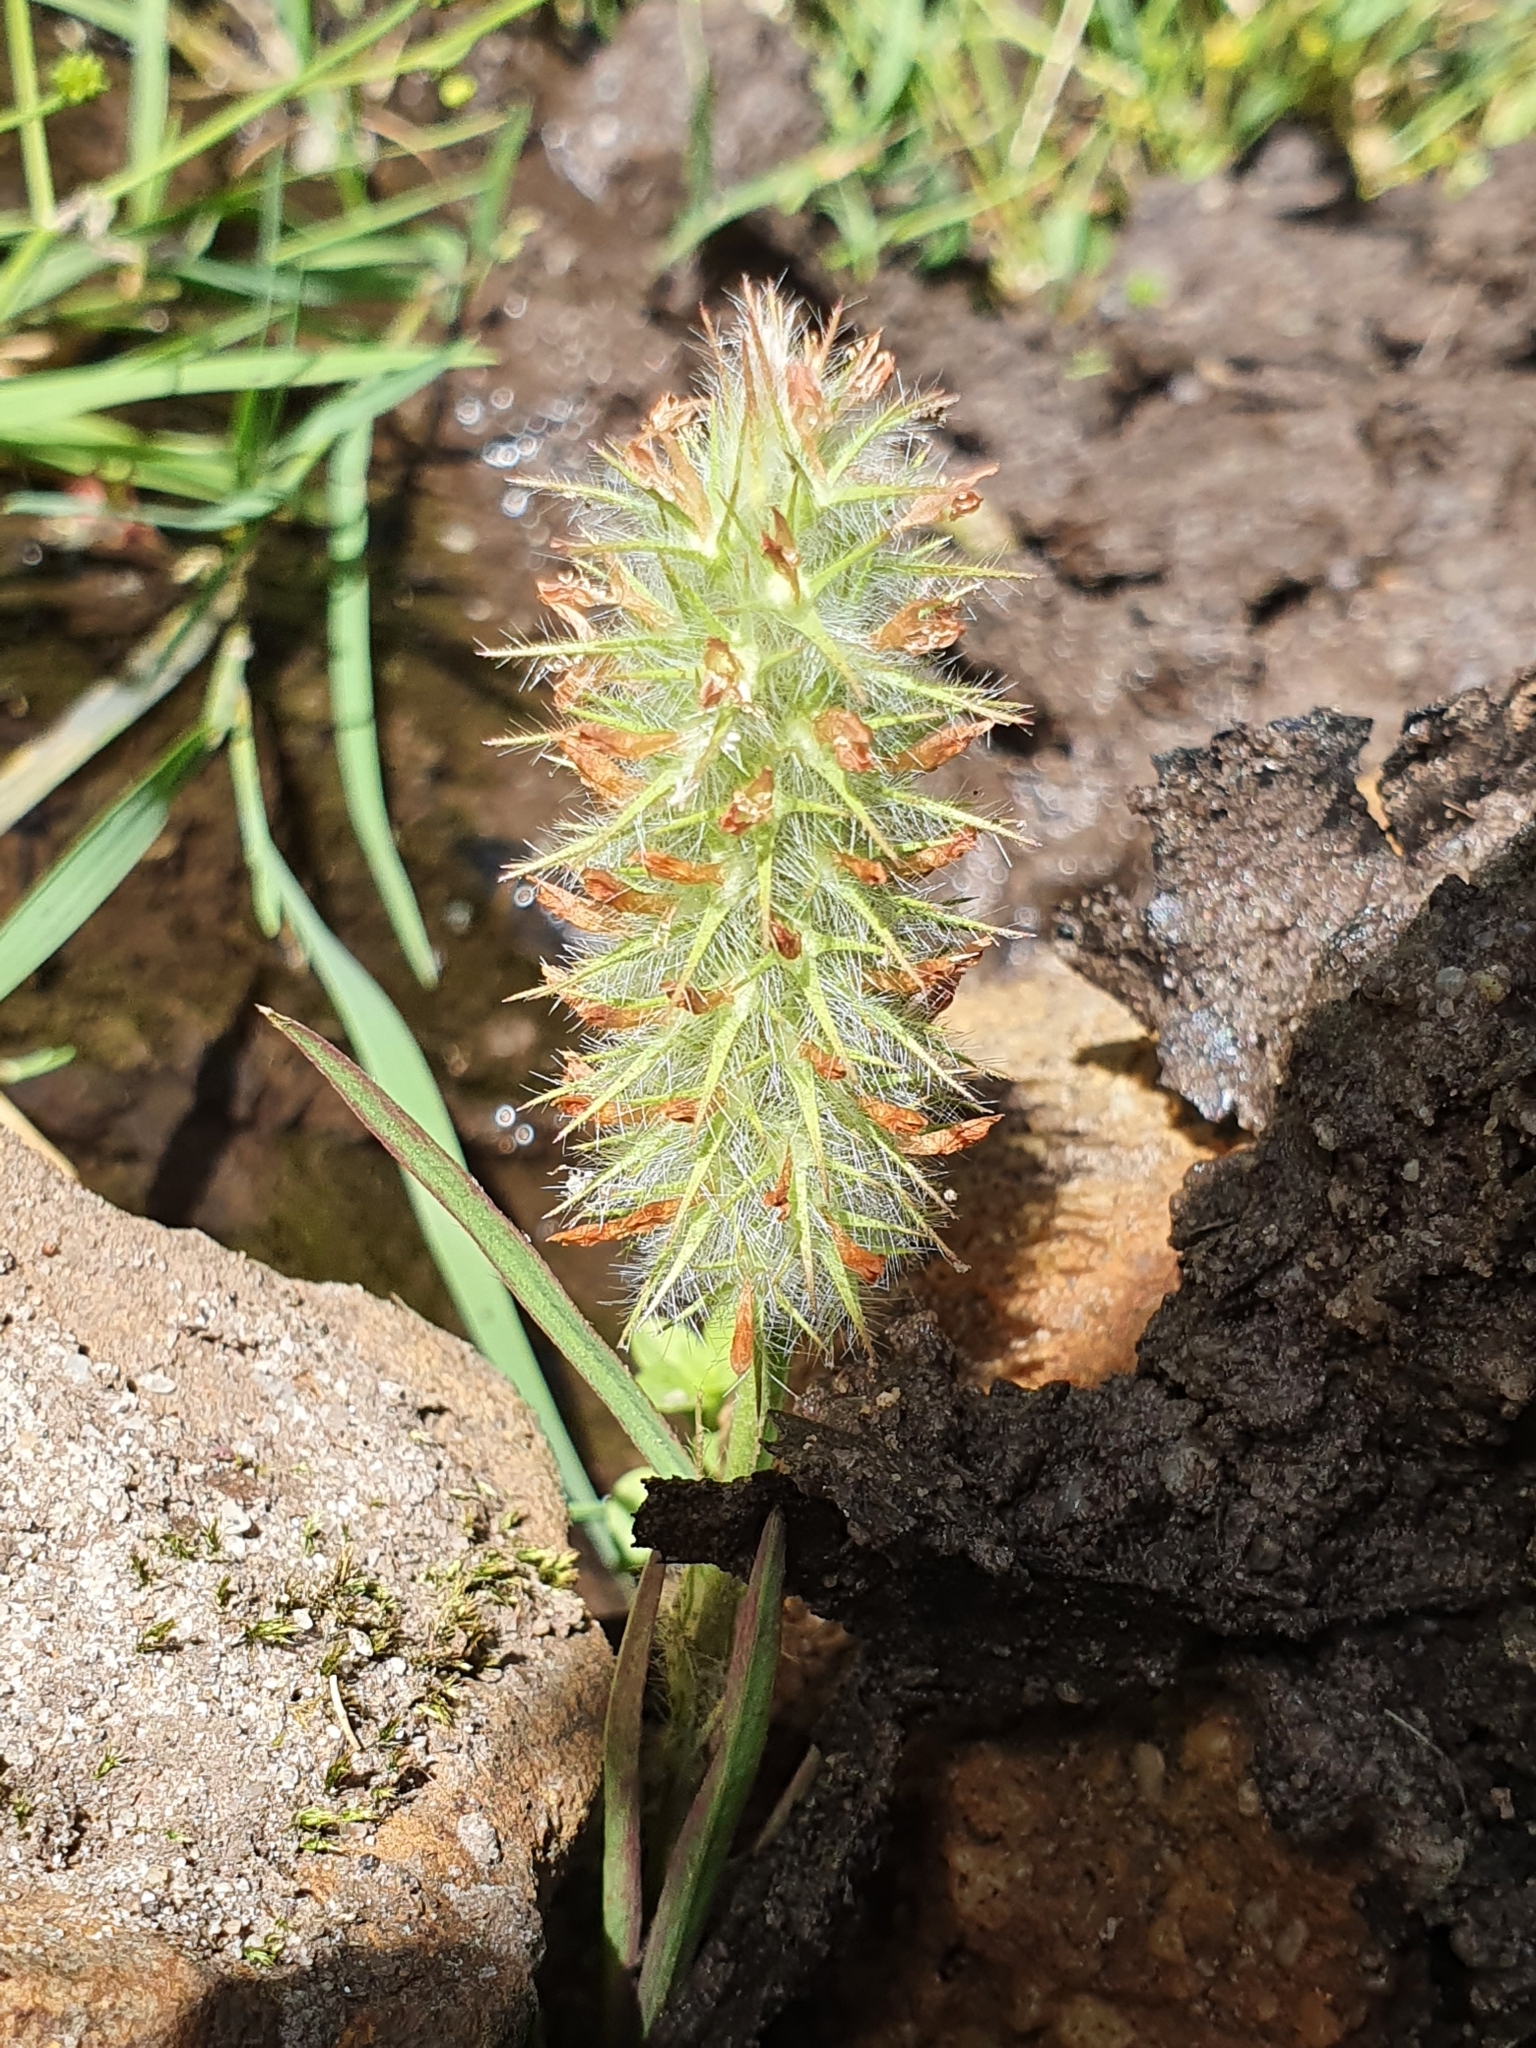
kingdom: Plantae
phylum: Tracheophyta
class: Magnoliopsida
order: Fabales
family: Fabaceae
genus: Trifolium
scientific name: Trifolium angustifolium
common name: Narrow clover
